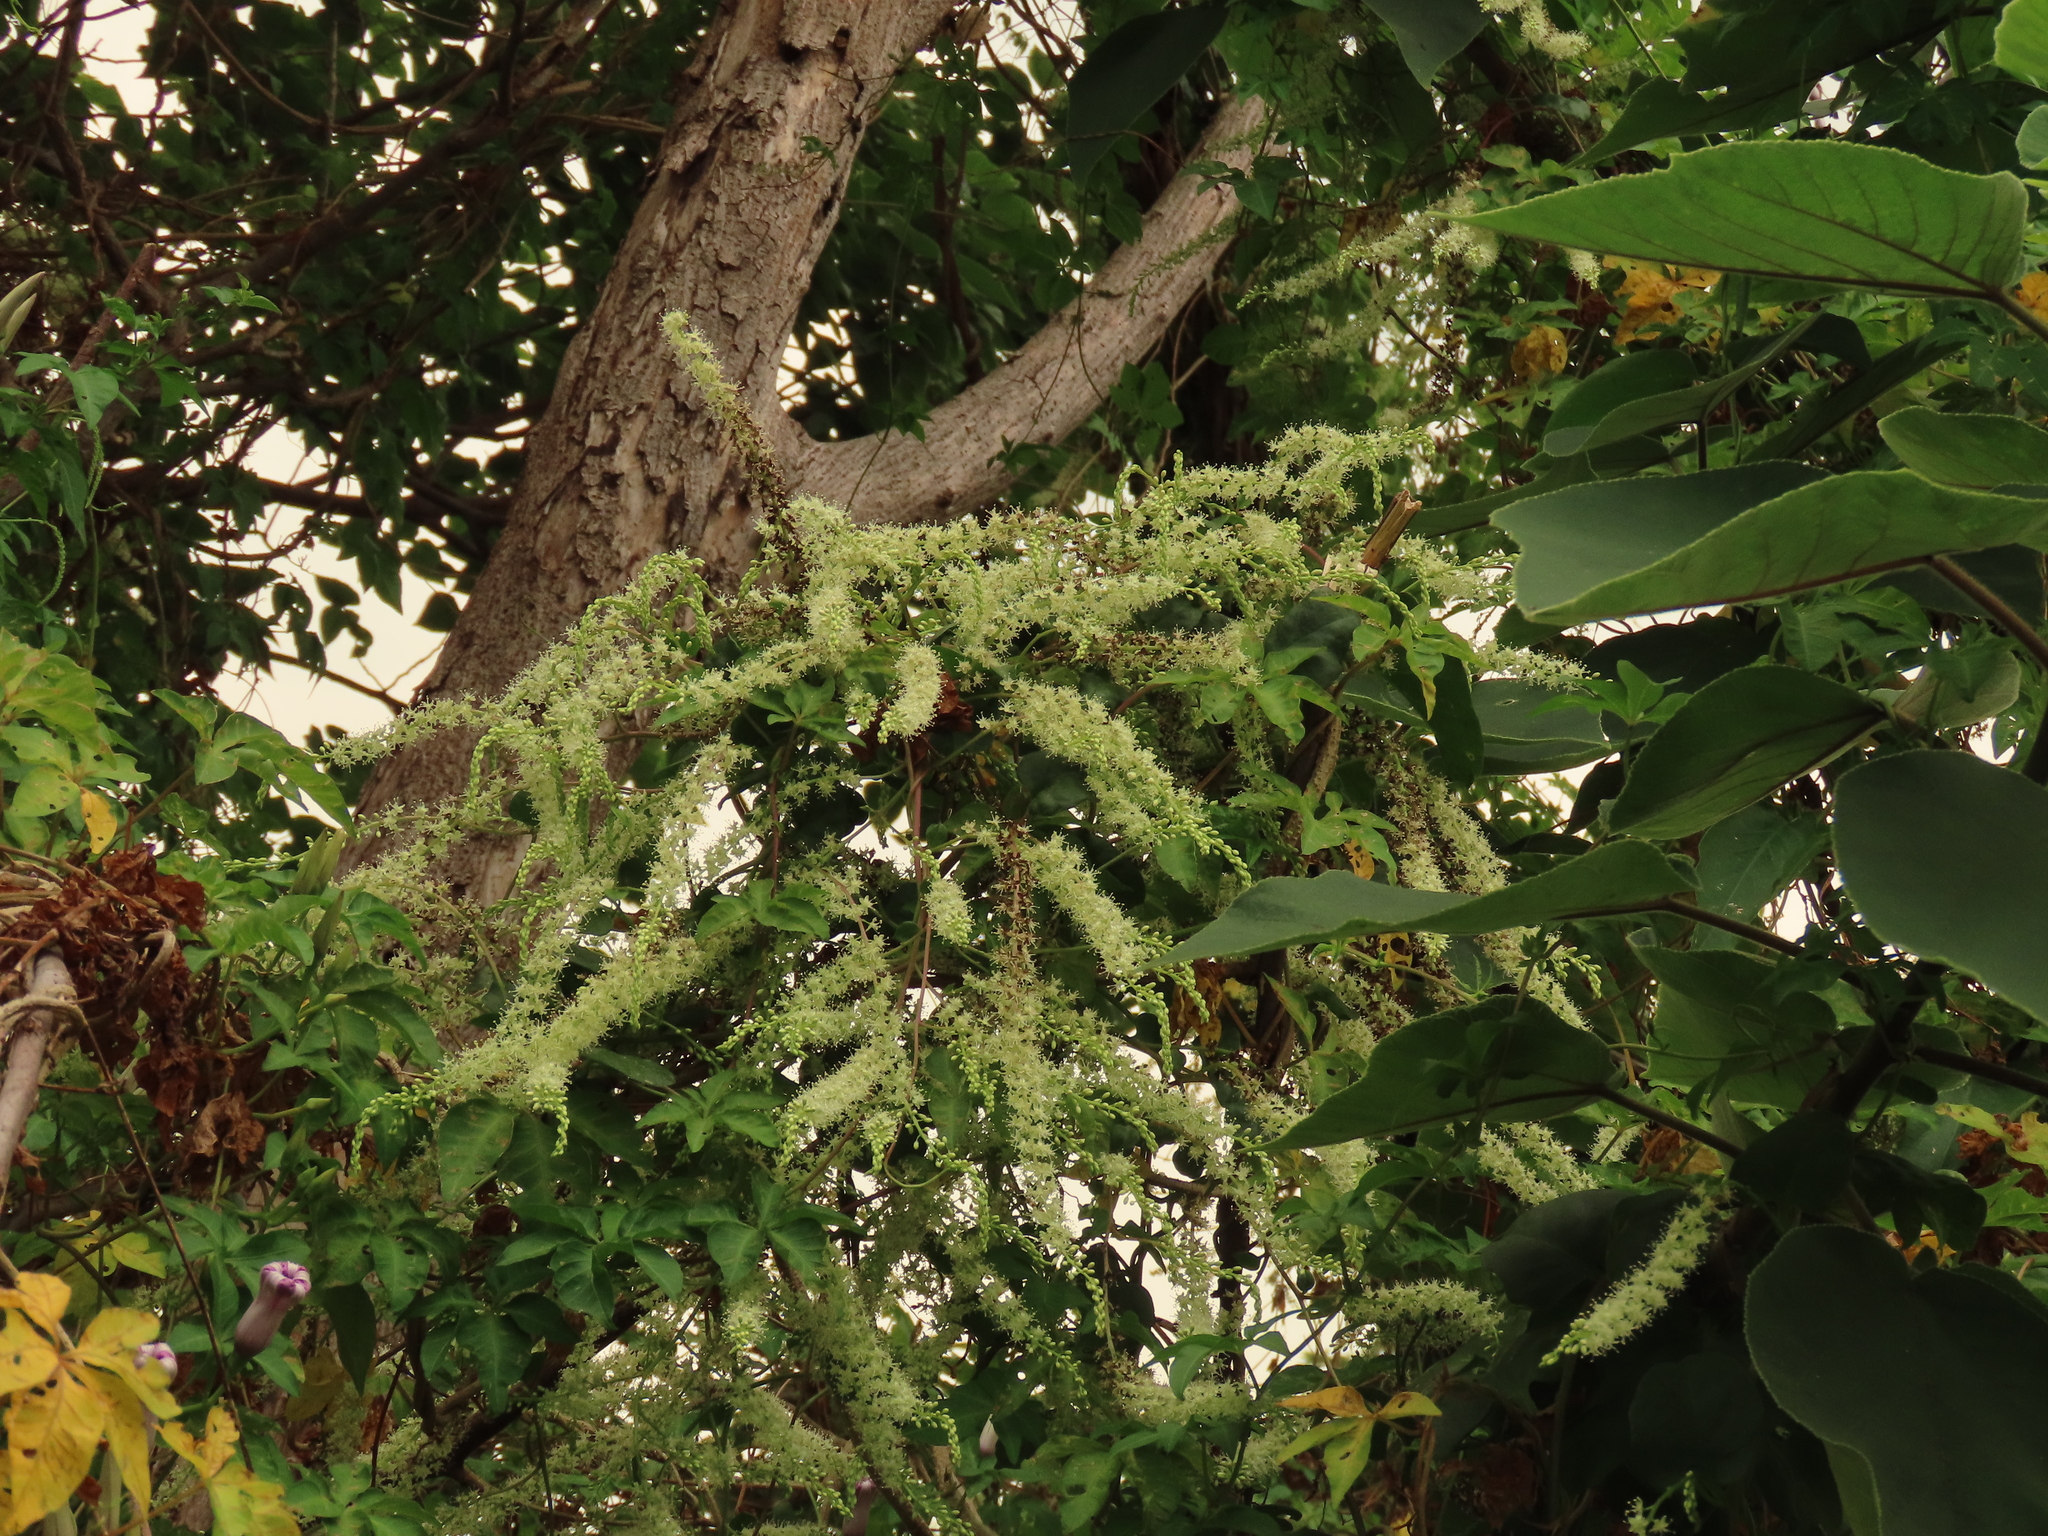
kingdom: Plantae
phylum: Tracheophyta
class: Magnoliopsida
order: Caryophyllales
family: Basellaceae
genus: Anredera
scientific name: Anredera cordifolia
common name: Heartleaf madeiravine
